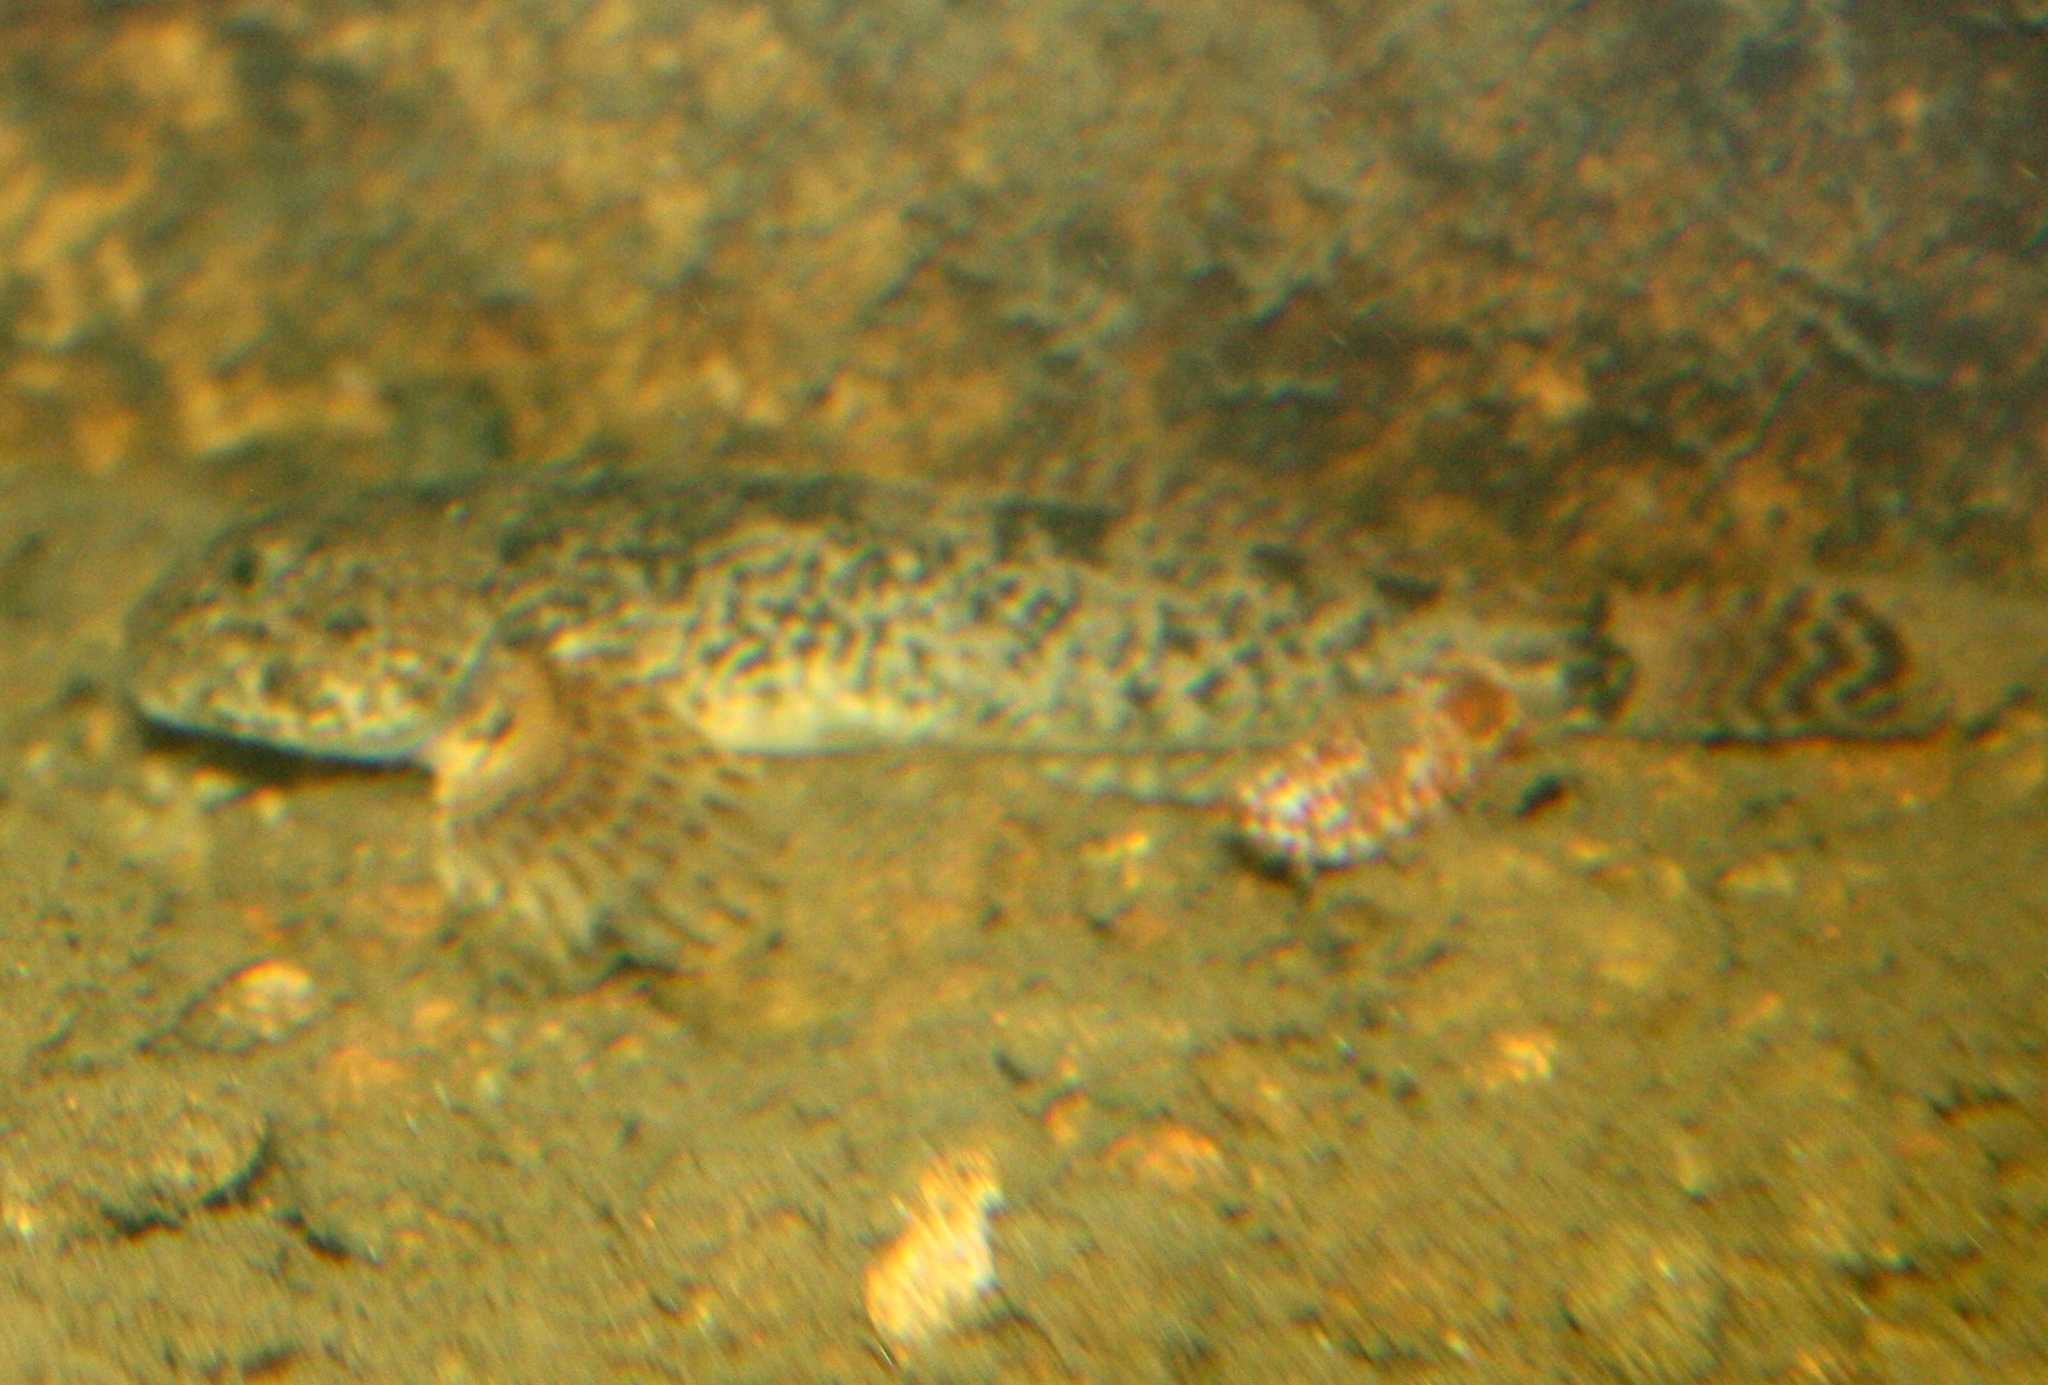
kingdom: Animalia
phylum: Chordata
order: Scorpaeniformes
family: Cottidae
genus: Cottus
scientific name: Cottus beldingii
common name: Paiute sculpin
